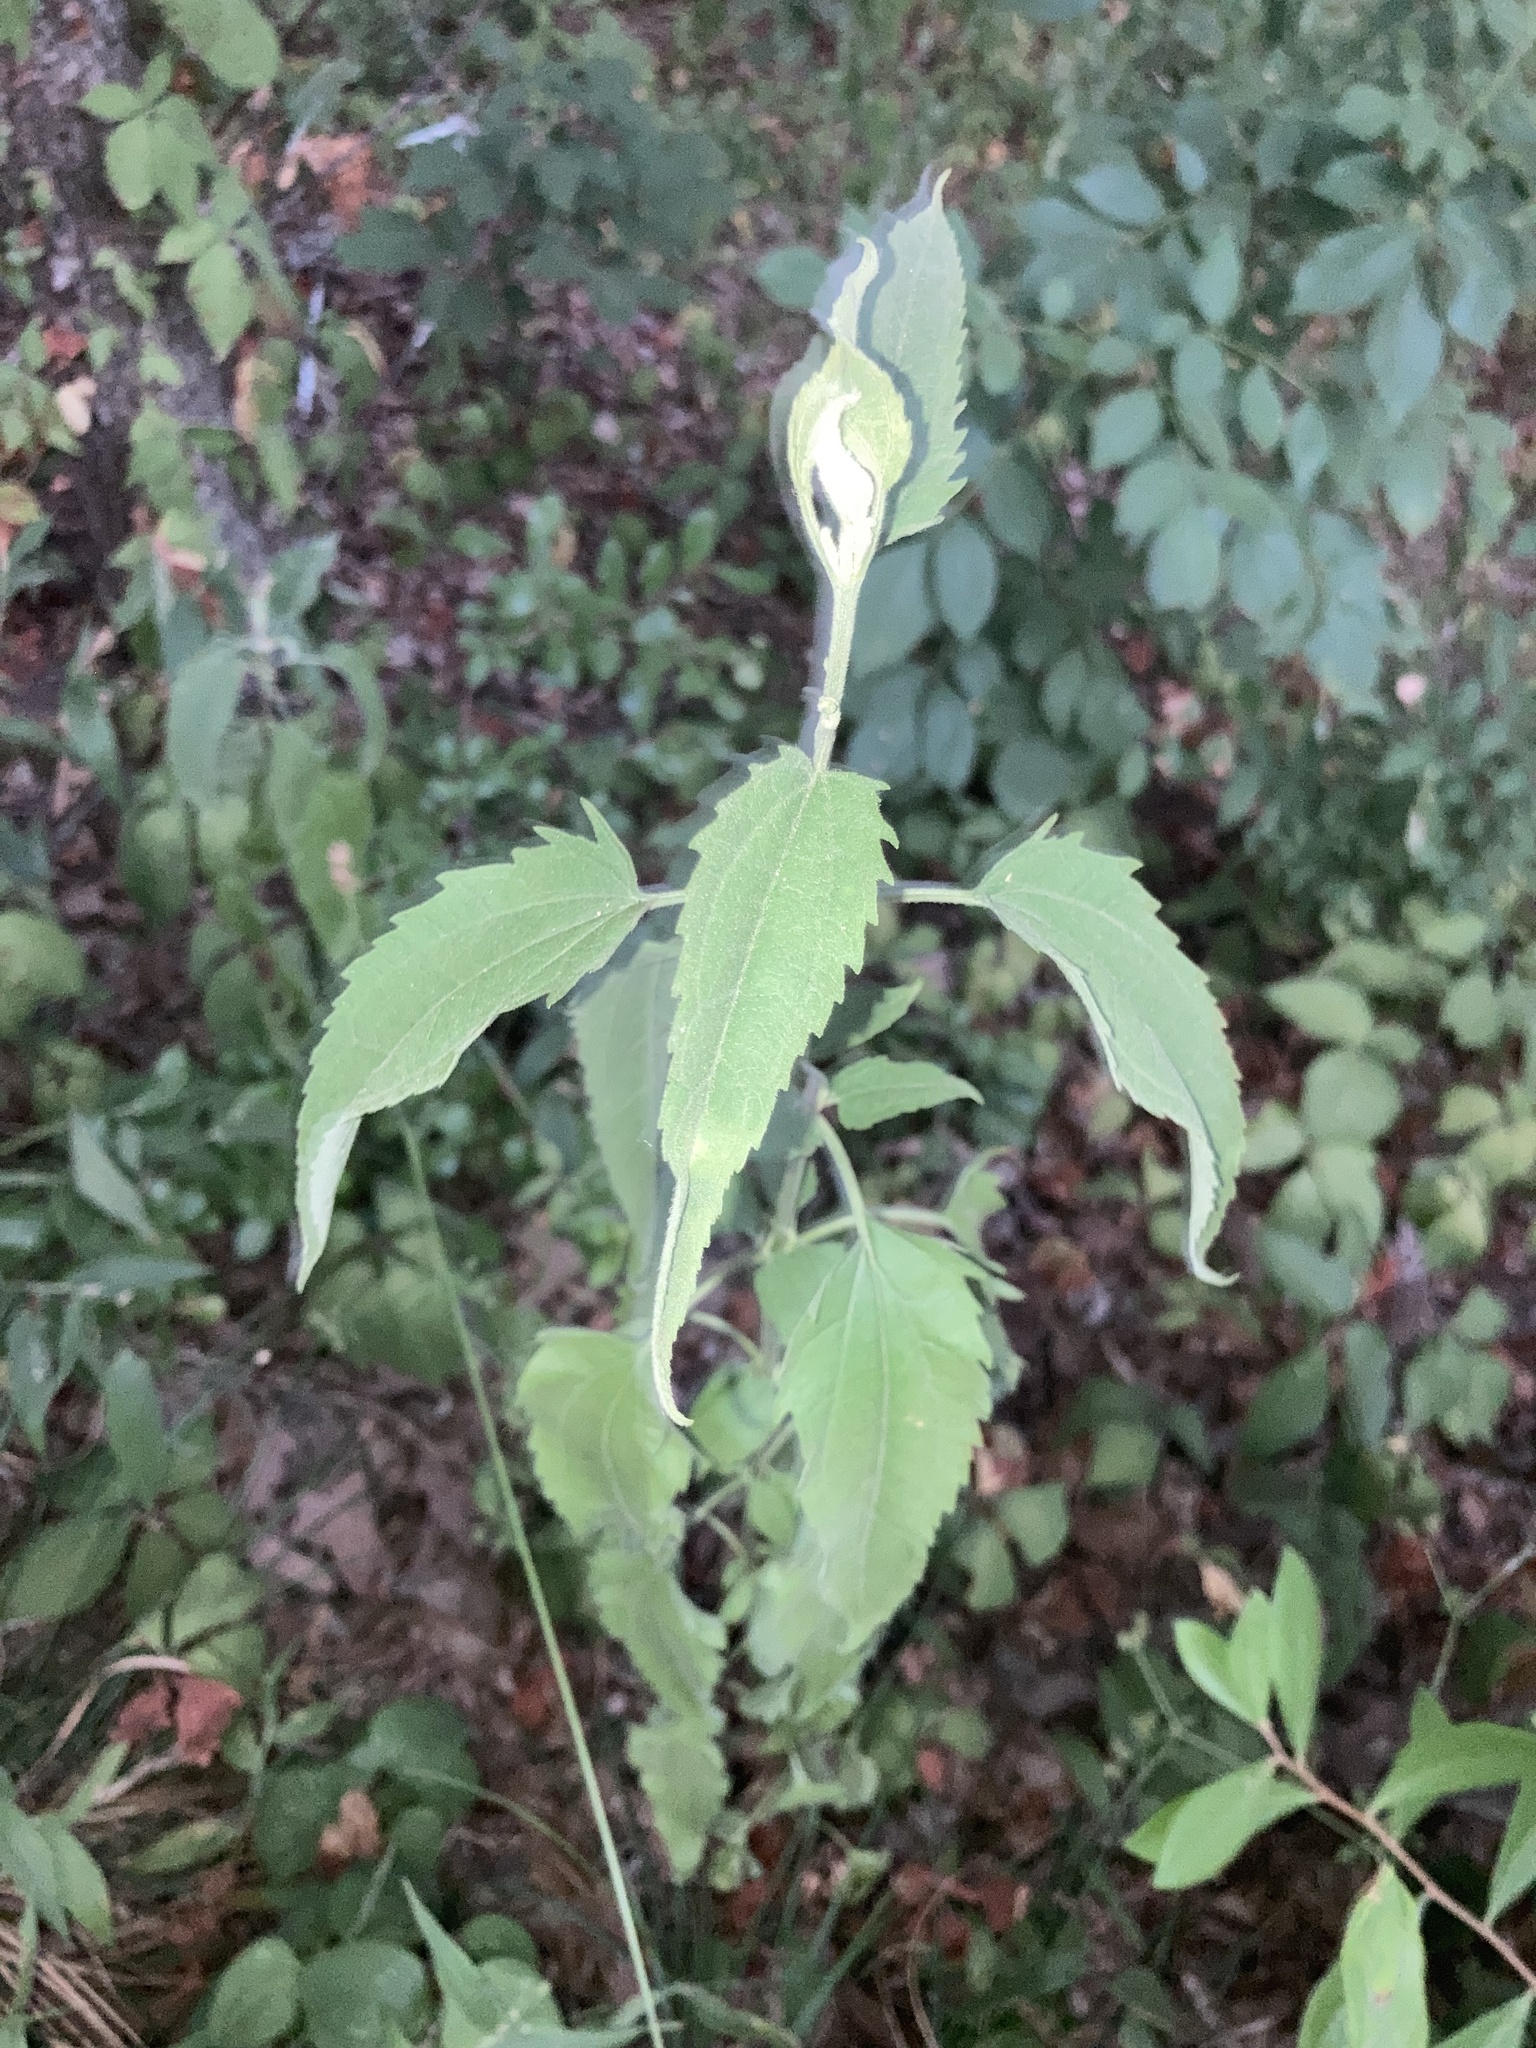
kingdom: Plantae
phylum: Tracheophyta
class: Magnoliopsida
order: Asterales
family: Asteraceae
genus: Eupatorium
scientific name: Eupatorium serotinum
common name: Late boneset
